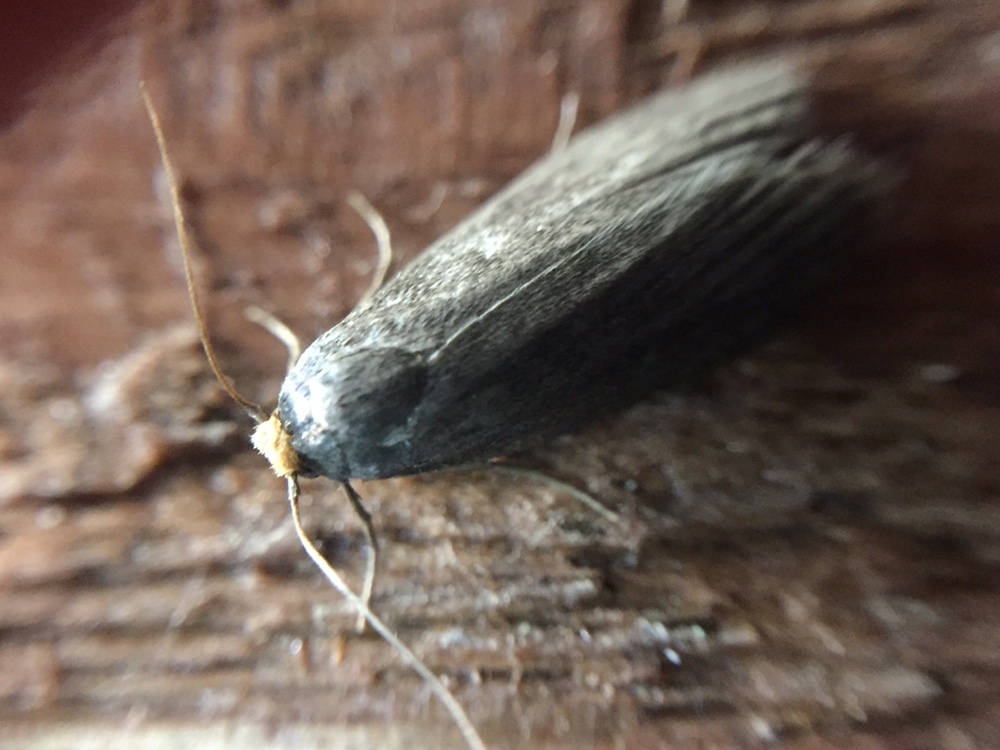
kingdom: Animalia
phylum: Arthropoda
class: Insecta
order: Lepidoptera
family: Pyralidae
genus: Achroia
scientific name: Achroia grisella
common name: Lesser wax moth
